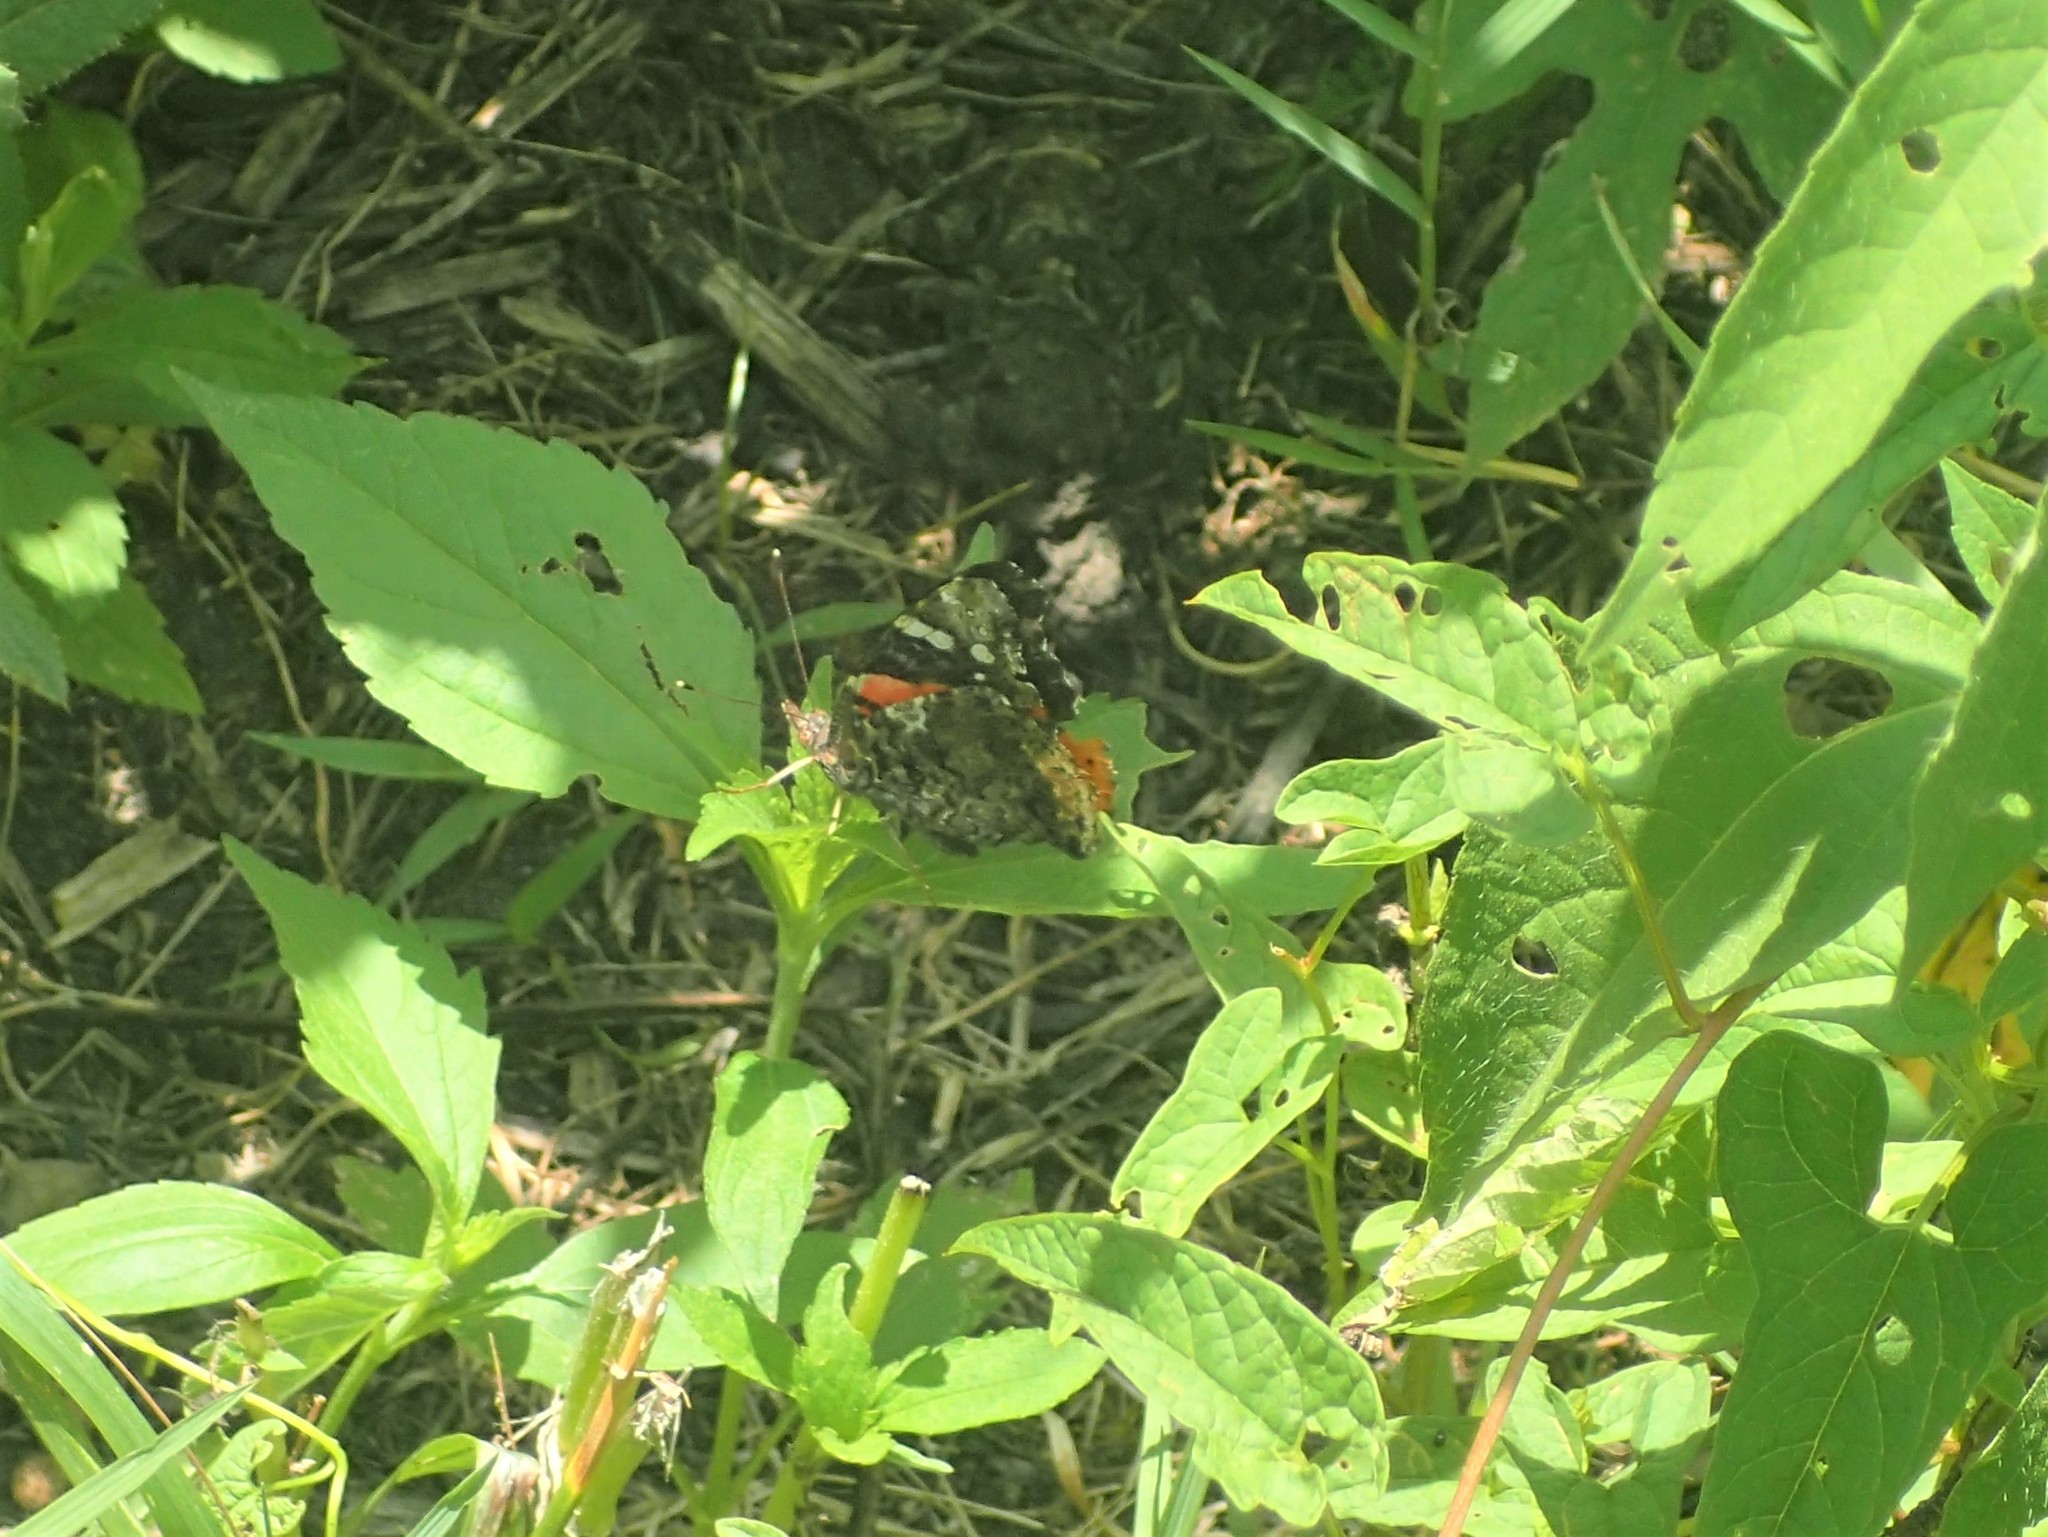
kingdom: Animalia
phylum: Arthropoda
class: Insecta
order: Lepidoptera
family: Nymphalidae
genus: Vanessa
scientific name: Vanessa atalanta
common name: Red admiral
